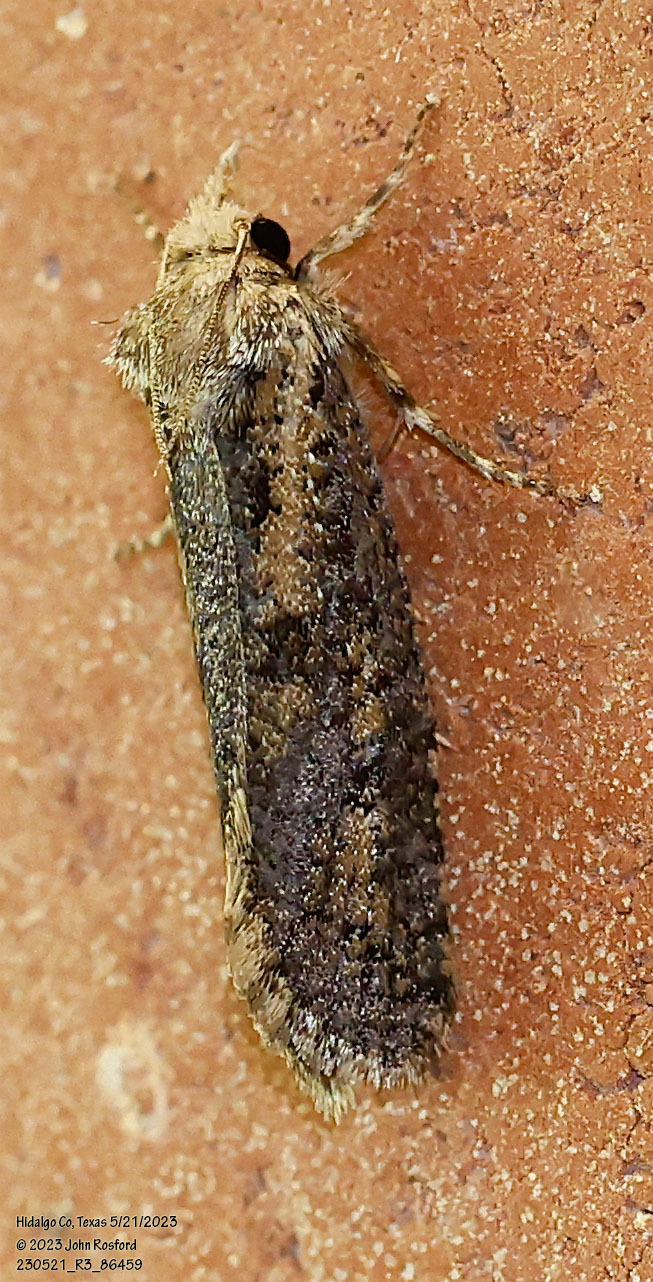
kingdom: Animalia
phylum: Arthropoda
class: Insecta
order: Lepidoptera
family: Tineidae
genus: Acrolophus
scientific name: Acrolophus popeanella
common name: Clemens' grass tubeworm moth
